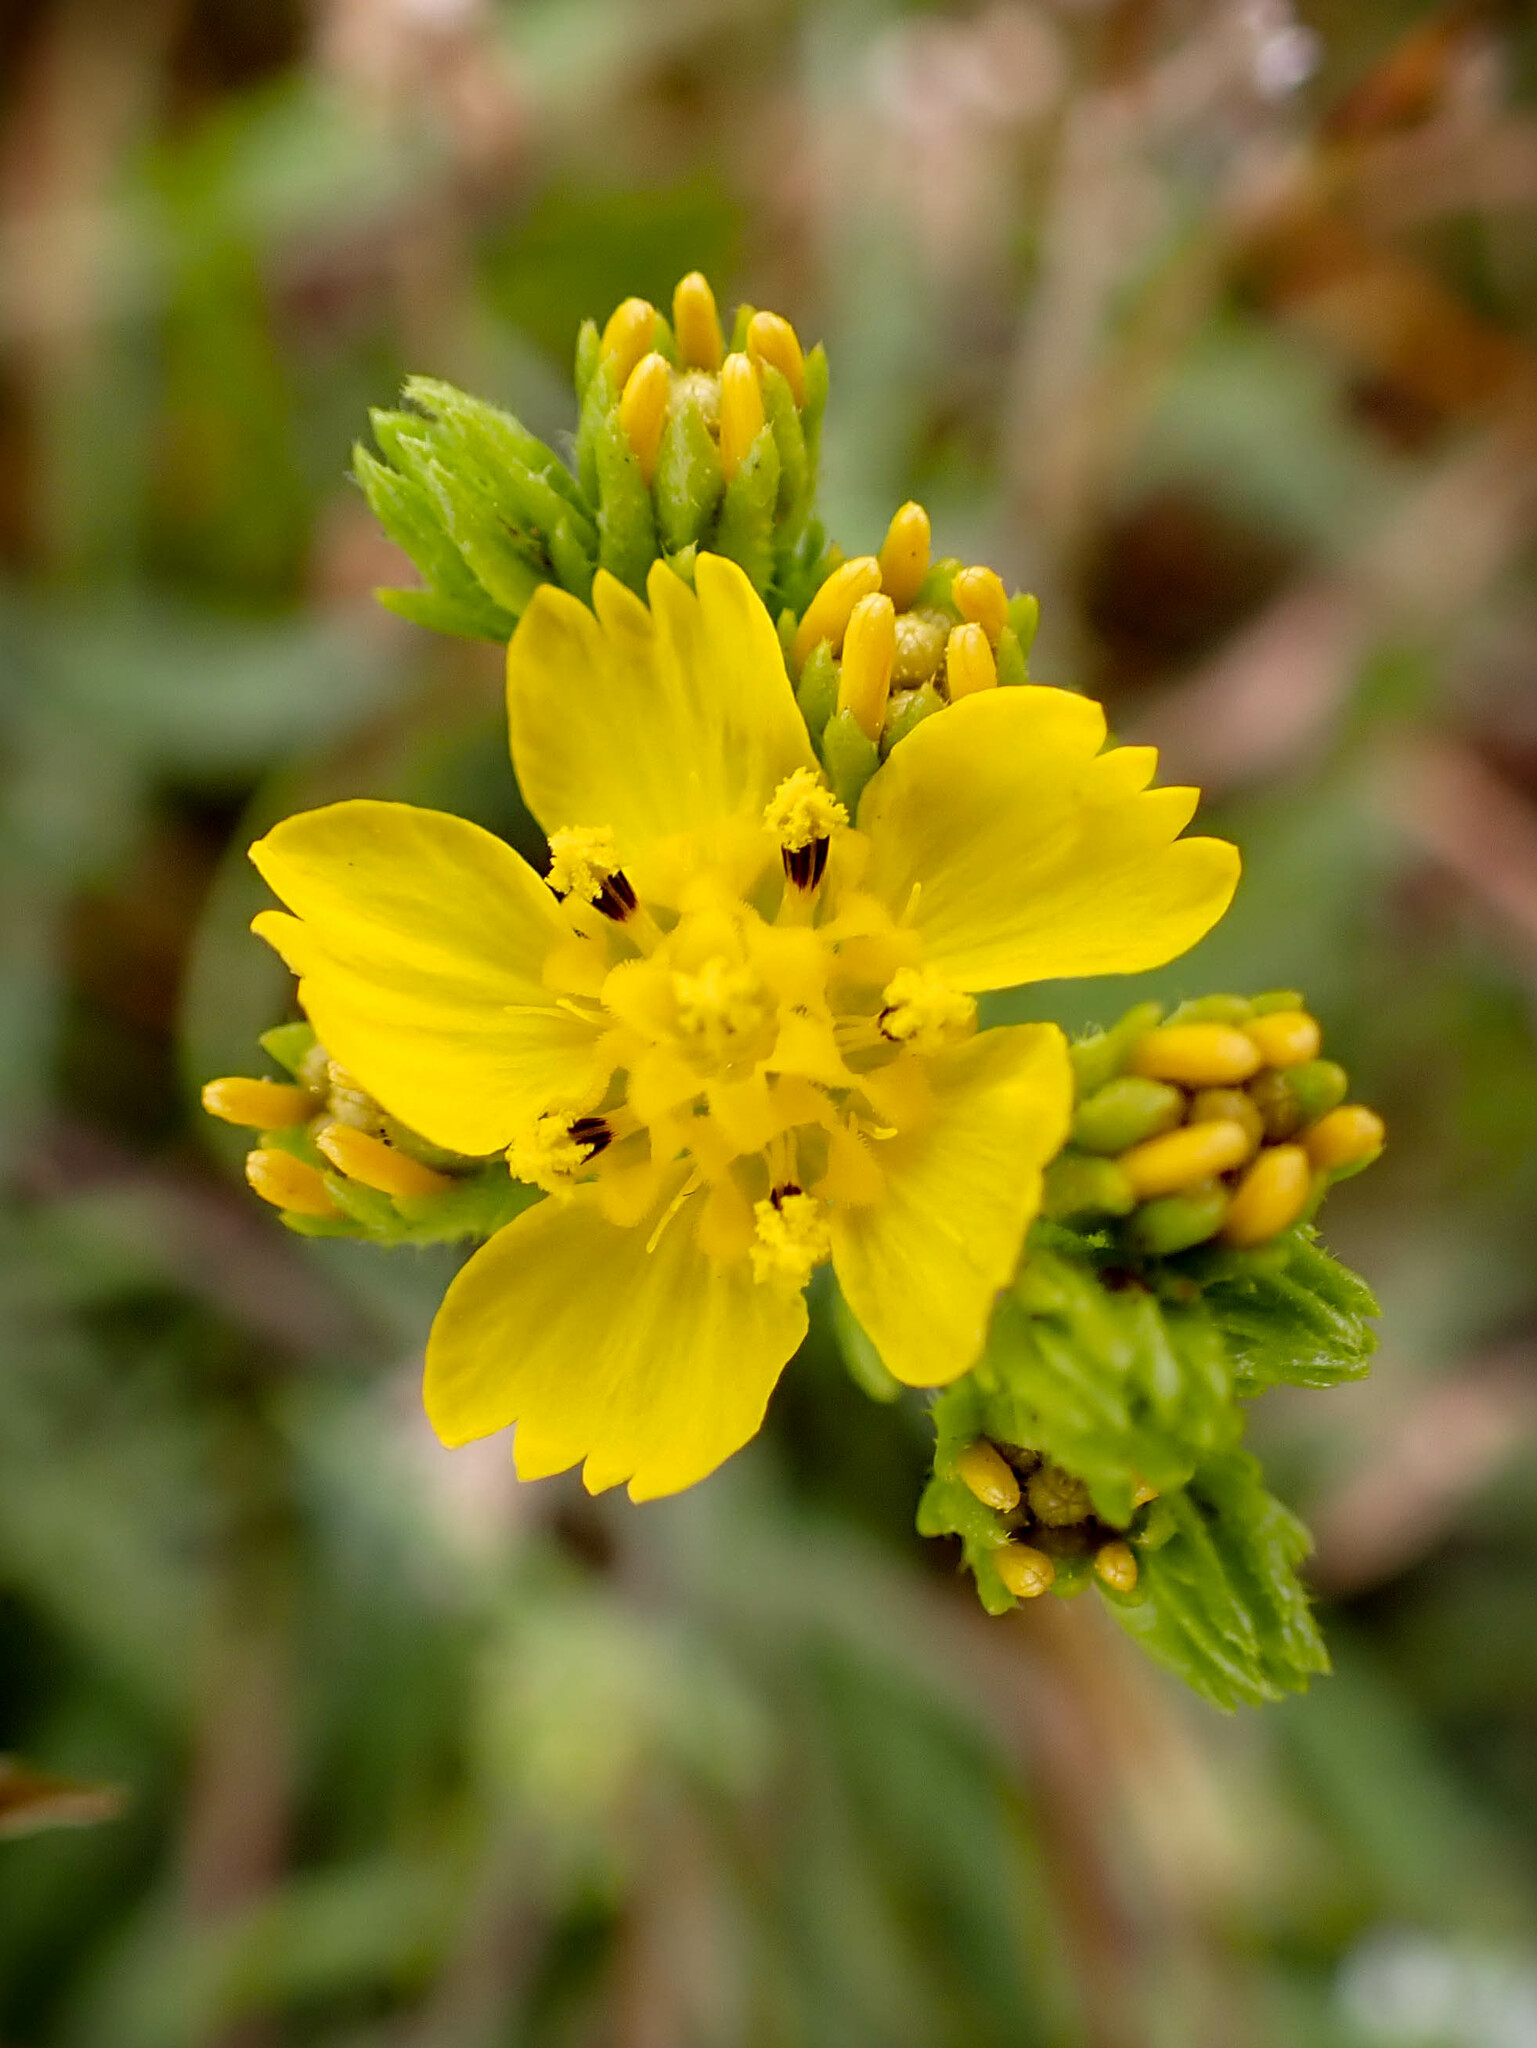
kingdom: Plantae
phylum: Tracheophyta
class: Magnoliopsida
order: Asterales
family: Asteraceae
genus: Deinandra
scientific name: Deinandra fasciculata
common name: Clustered tarweed
